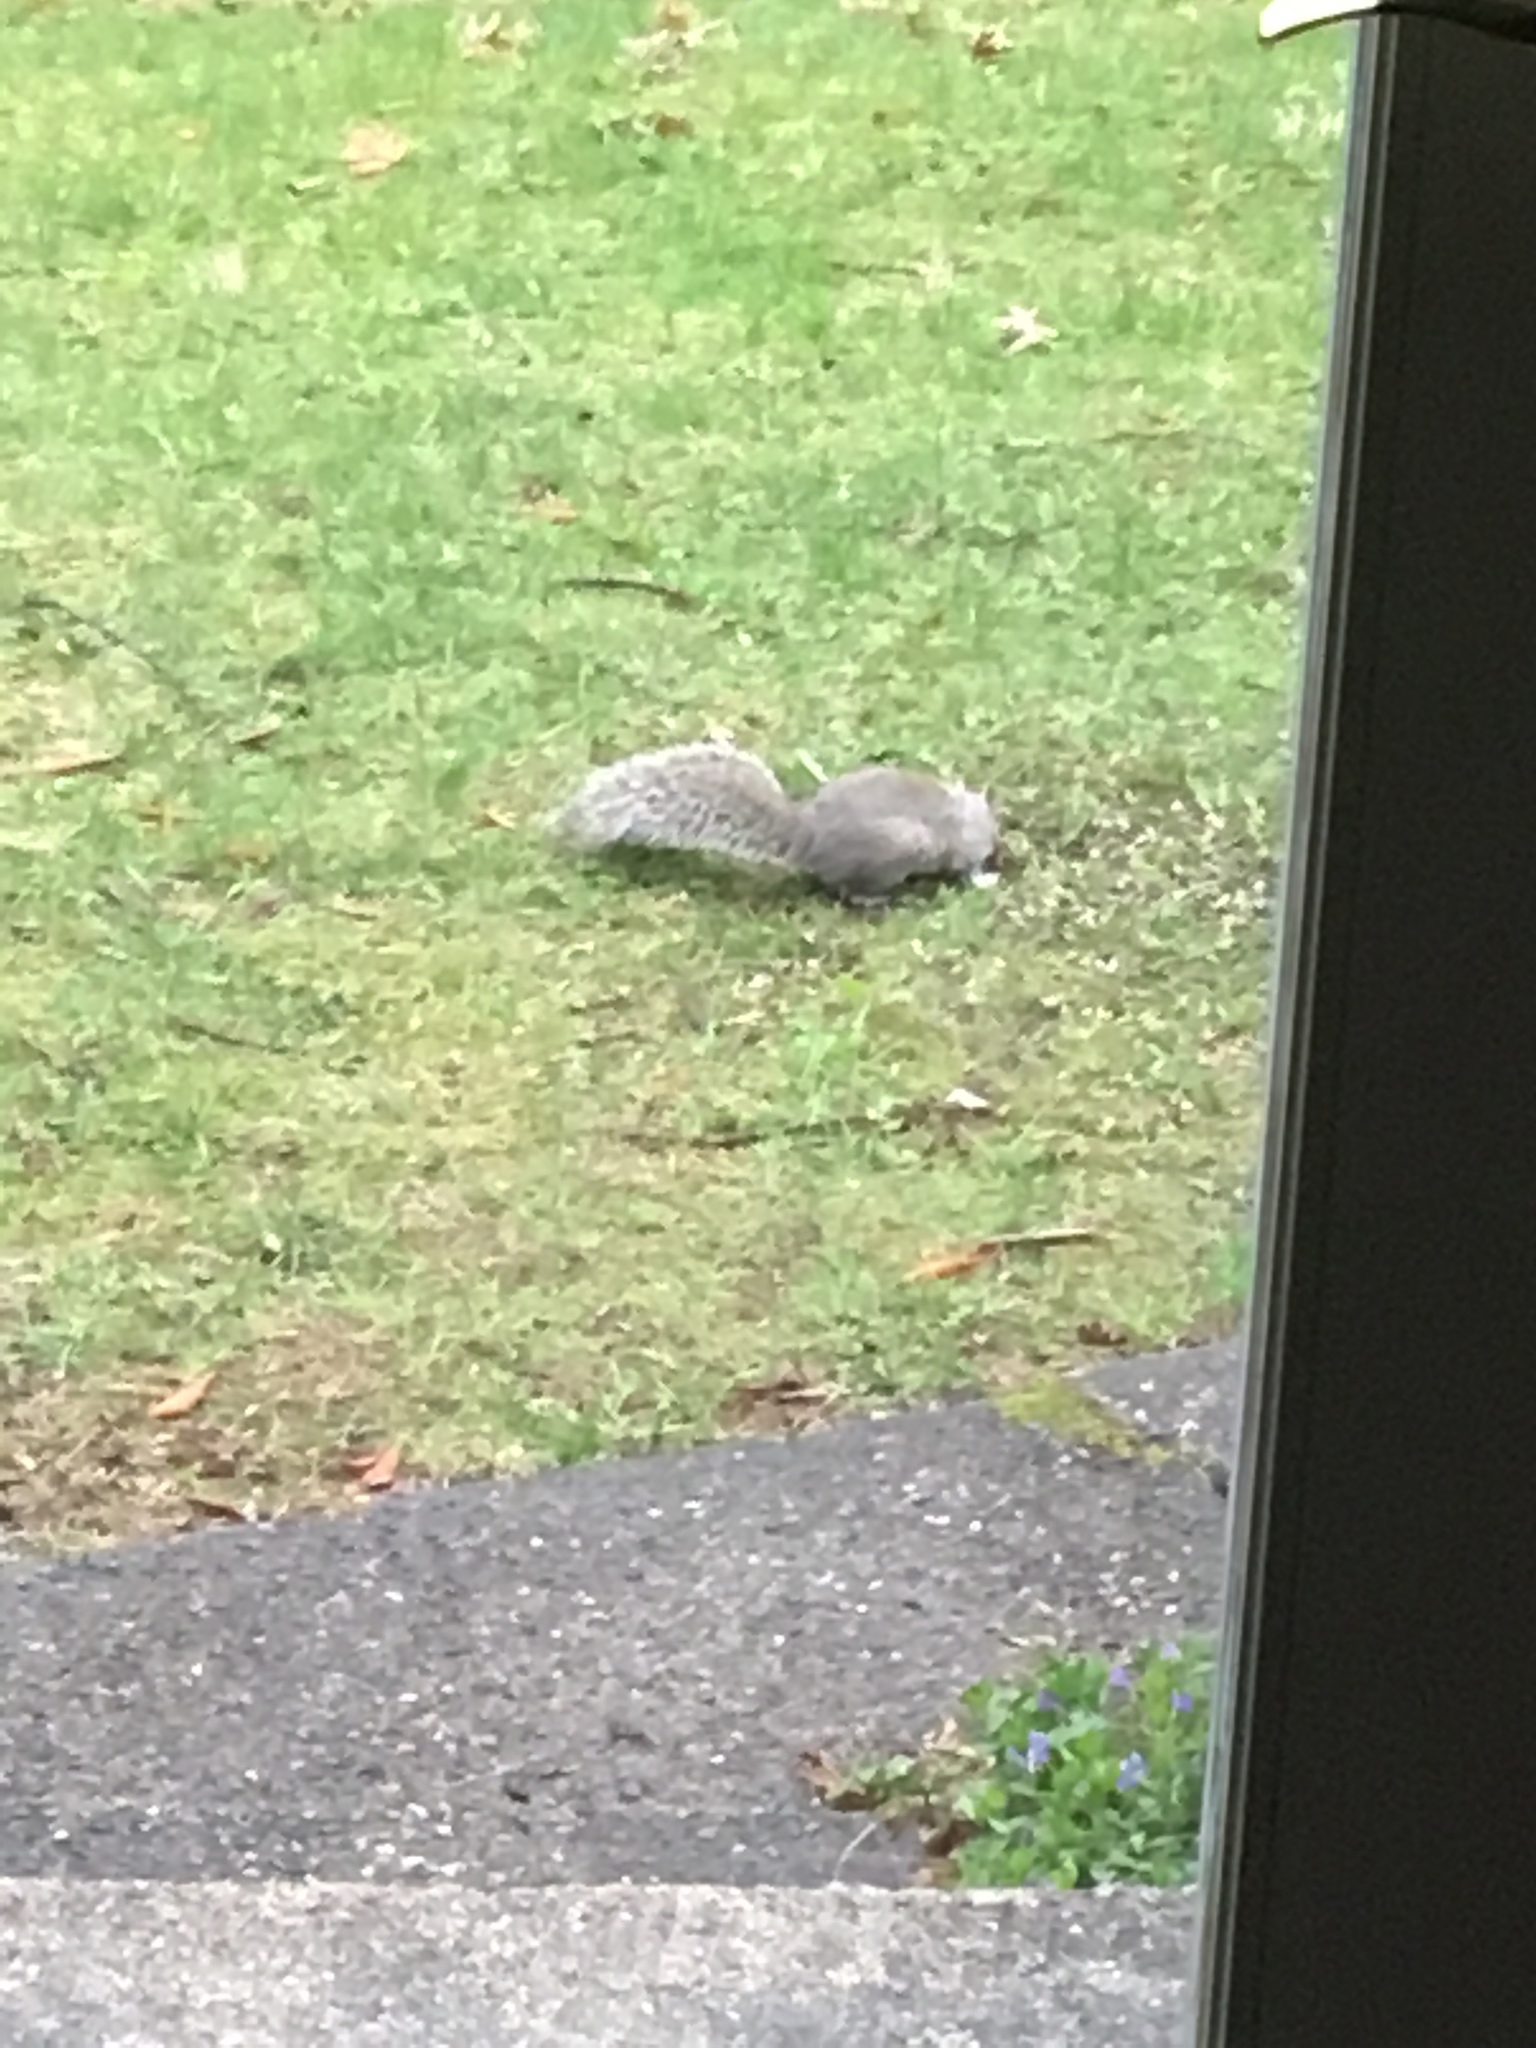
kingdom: Animalia
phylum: Chordata
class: Mammalia
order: Rodentia
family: Sciuridae
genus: Sciurus
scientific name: Sciurus carolinensis
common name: Eastern gray squirrel
